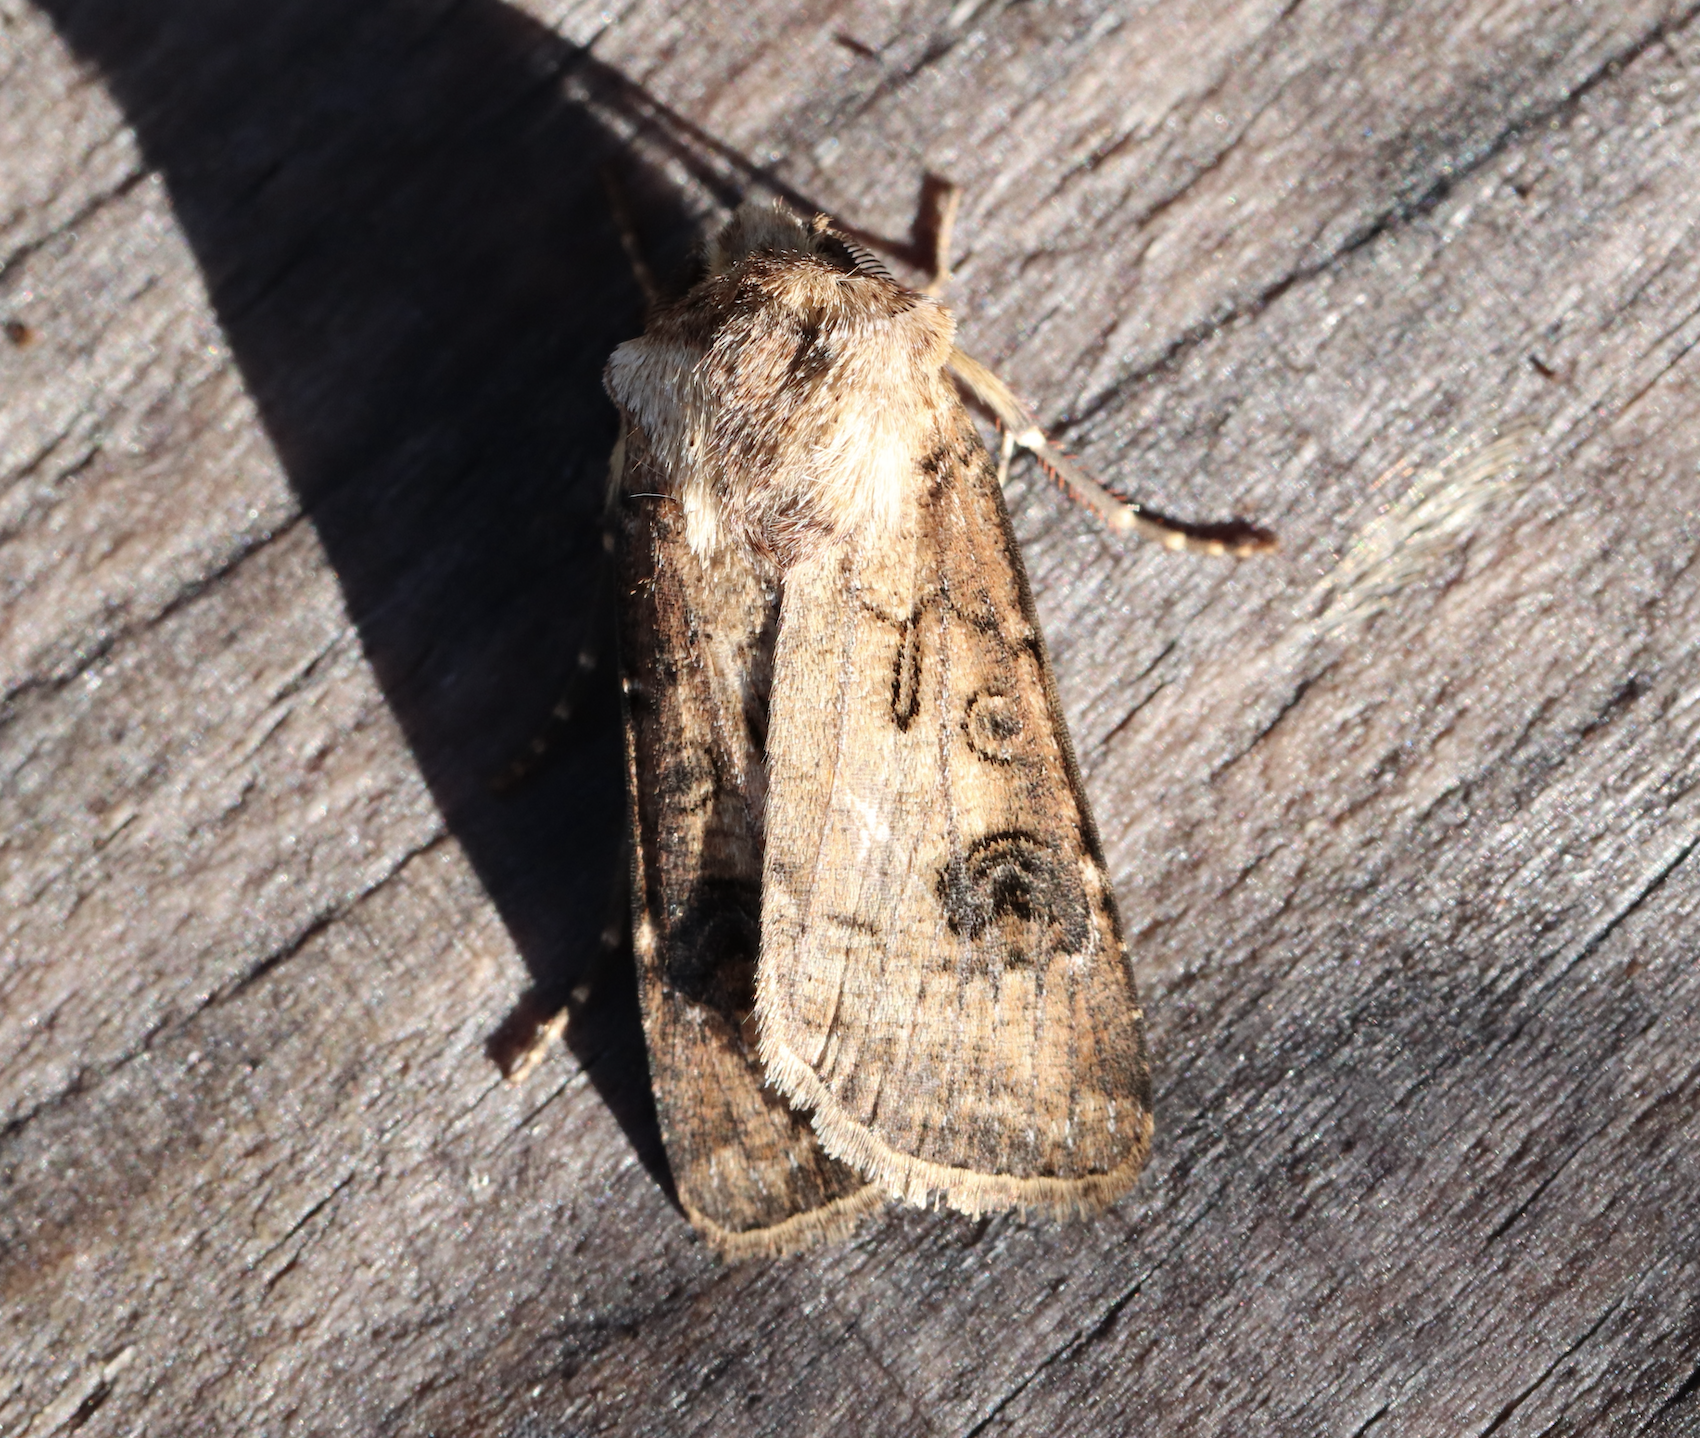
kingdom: Animalia
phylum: Arthropoda
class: Insecta
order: Lepidoptera
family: Noctuidae
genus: Agrotis
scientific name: Agrotis clavis
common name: Heart and club
